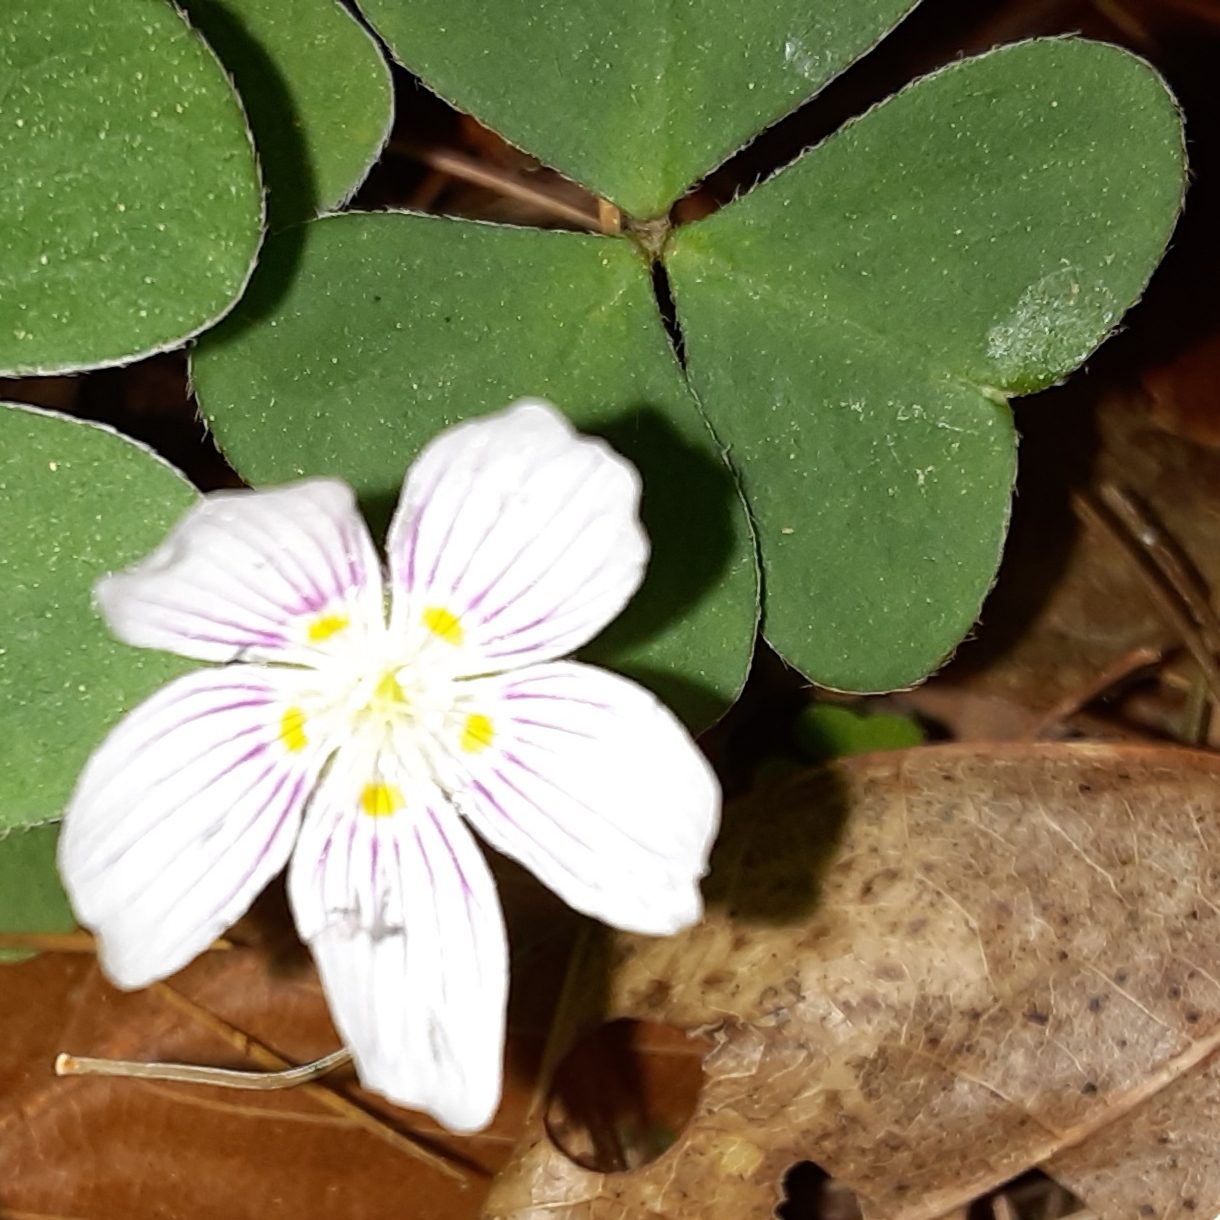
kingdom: Plantae
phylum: Tracheophyta
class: Magnoliopsida
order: Oxalidales
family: Oxalidaceae
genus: Oxalis
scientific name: Oxalis montana
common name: American wood-sorrel
